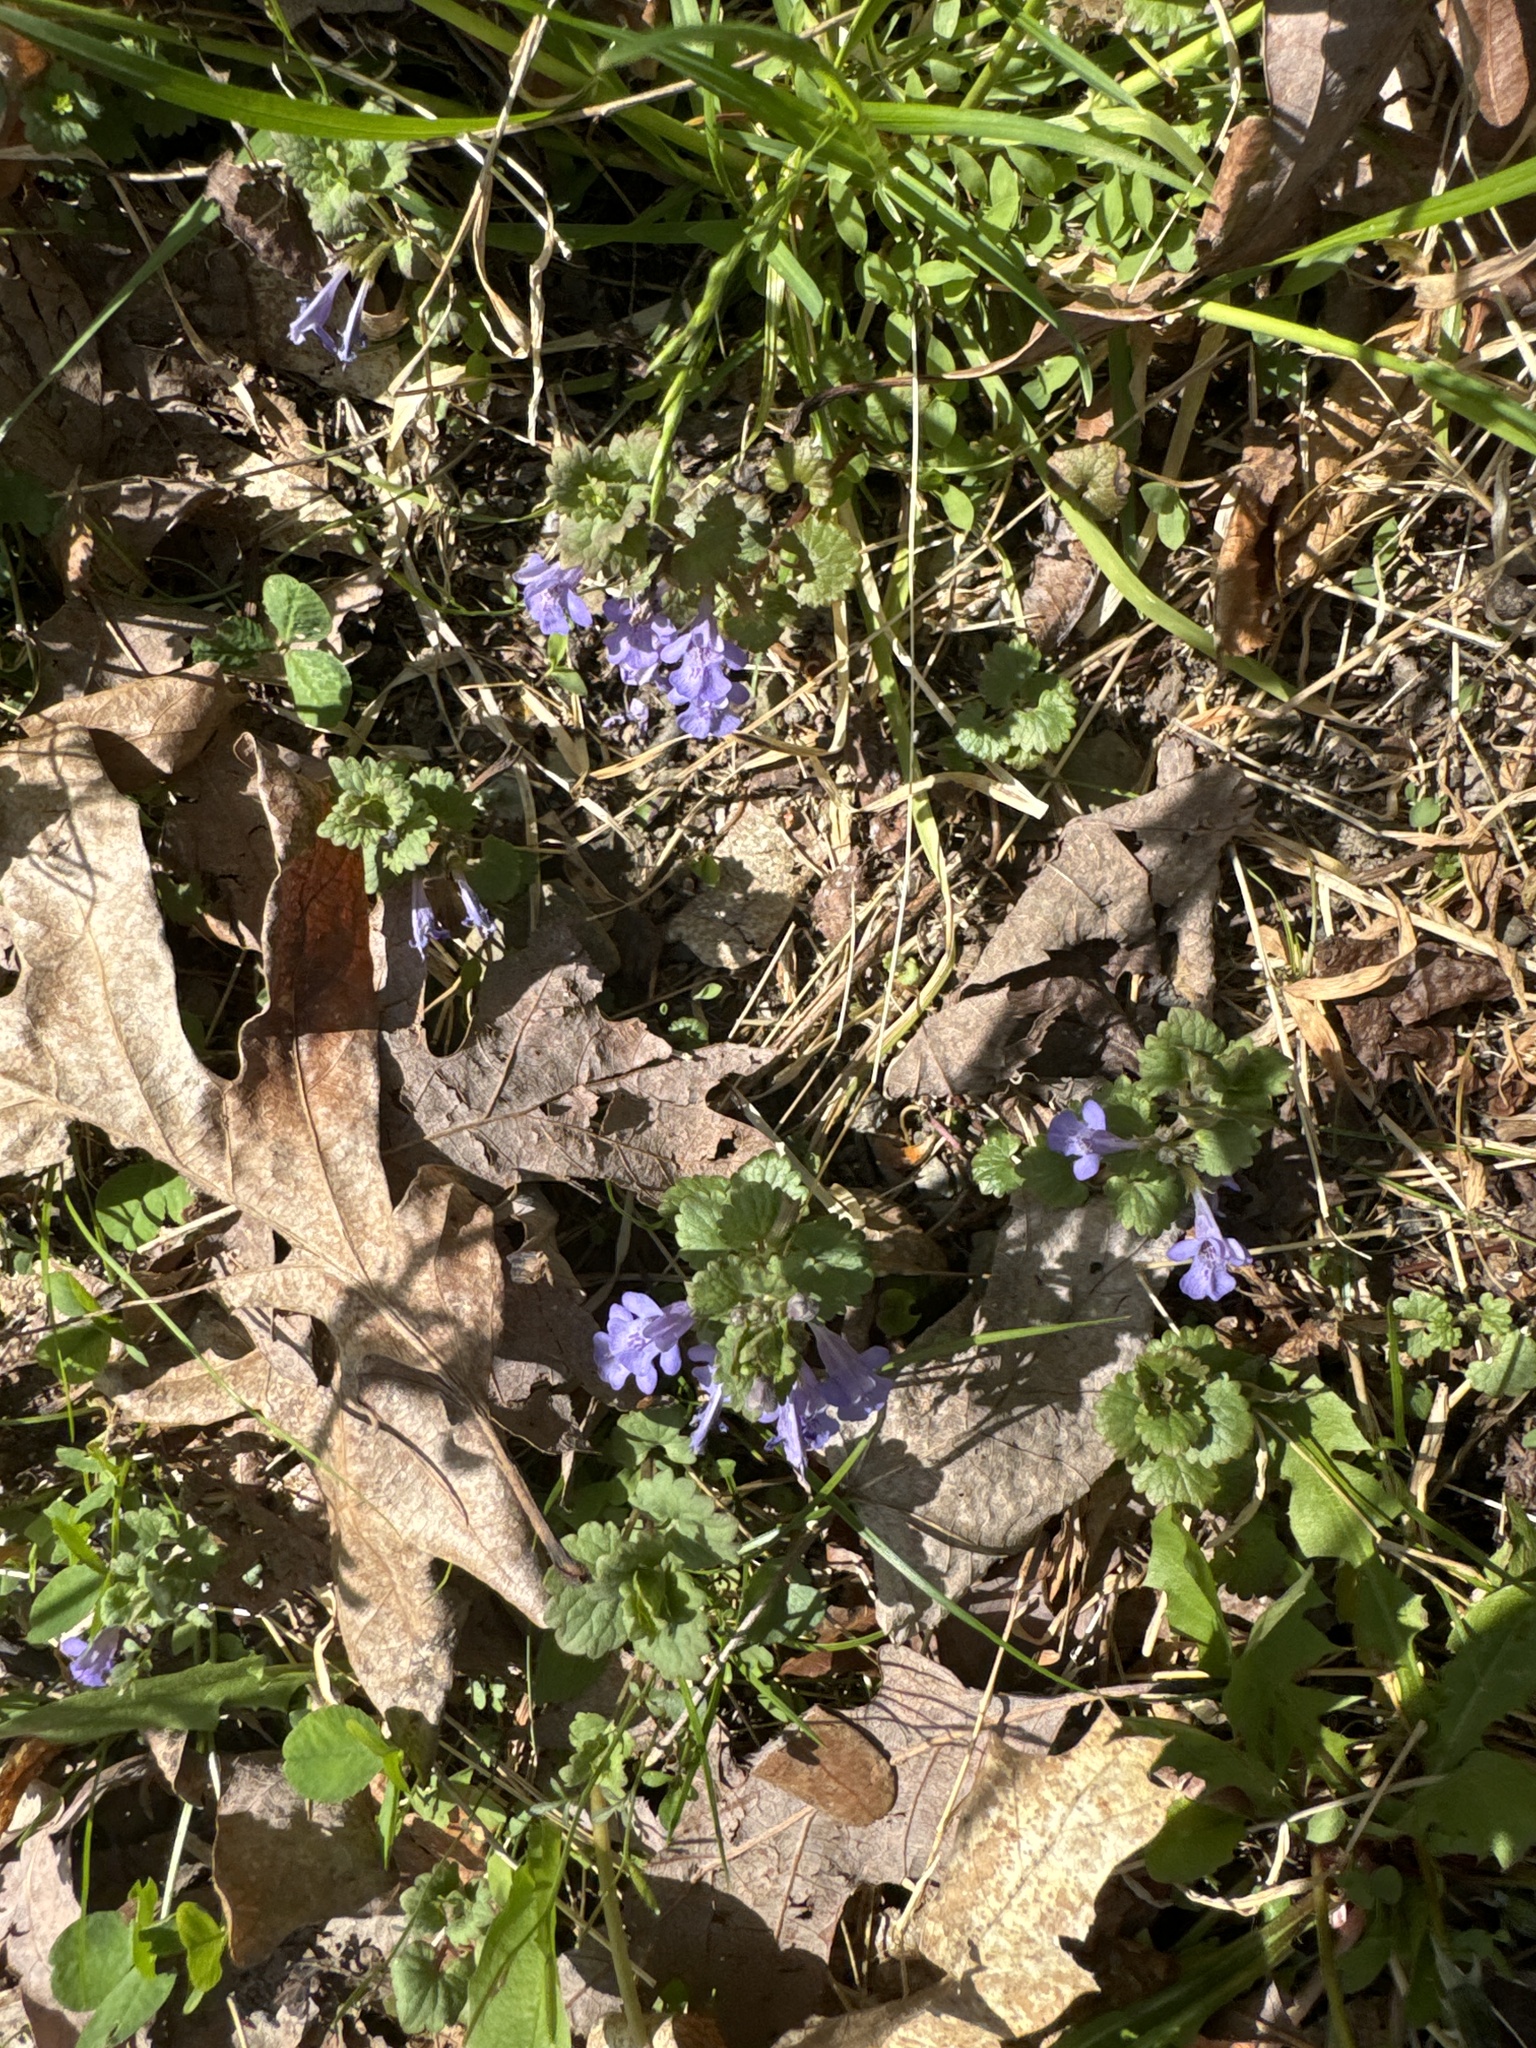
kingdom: Plantae
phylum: Tracheophyta
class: Magnoliopsida
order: Lamiales
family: Lamiaceae
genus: Glechoma
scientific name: Glechoma hederacea
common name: Ground ivy
